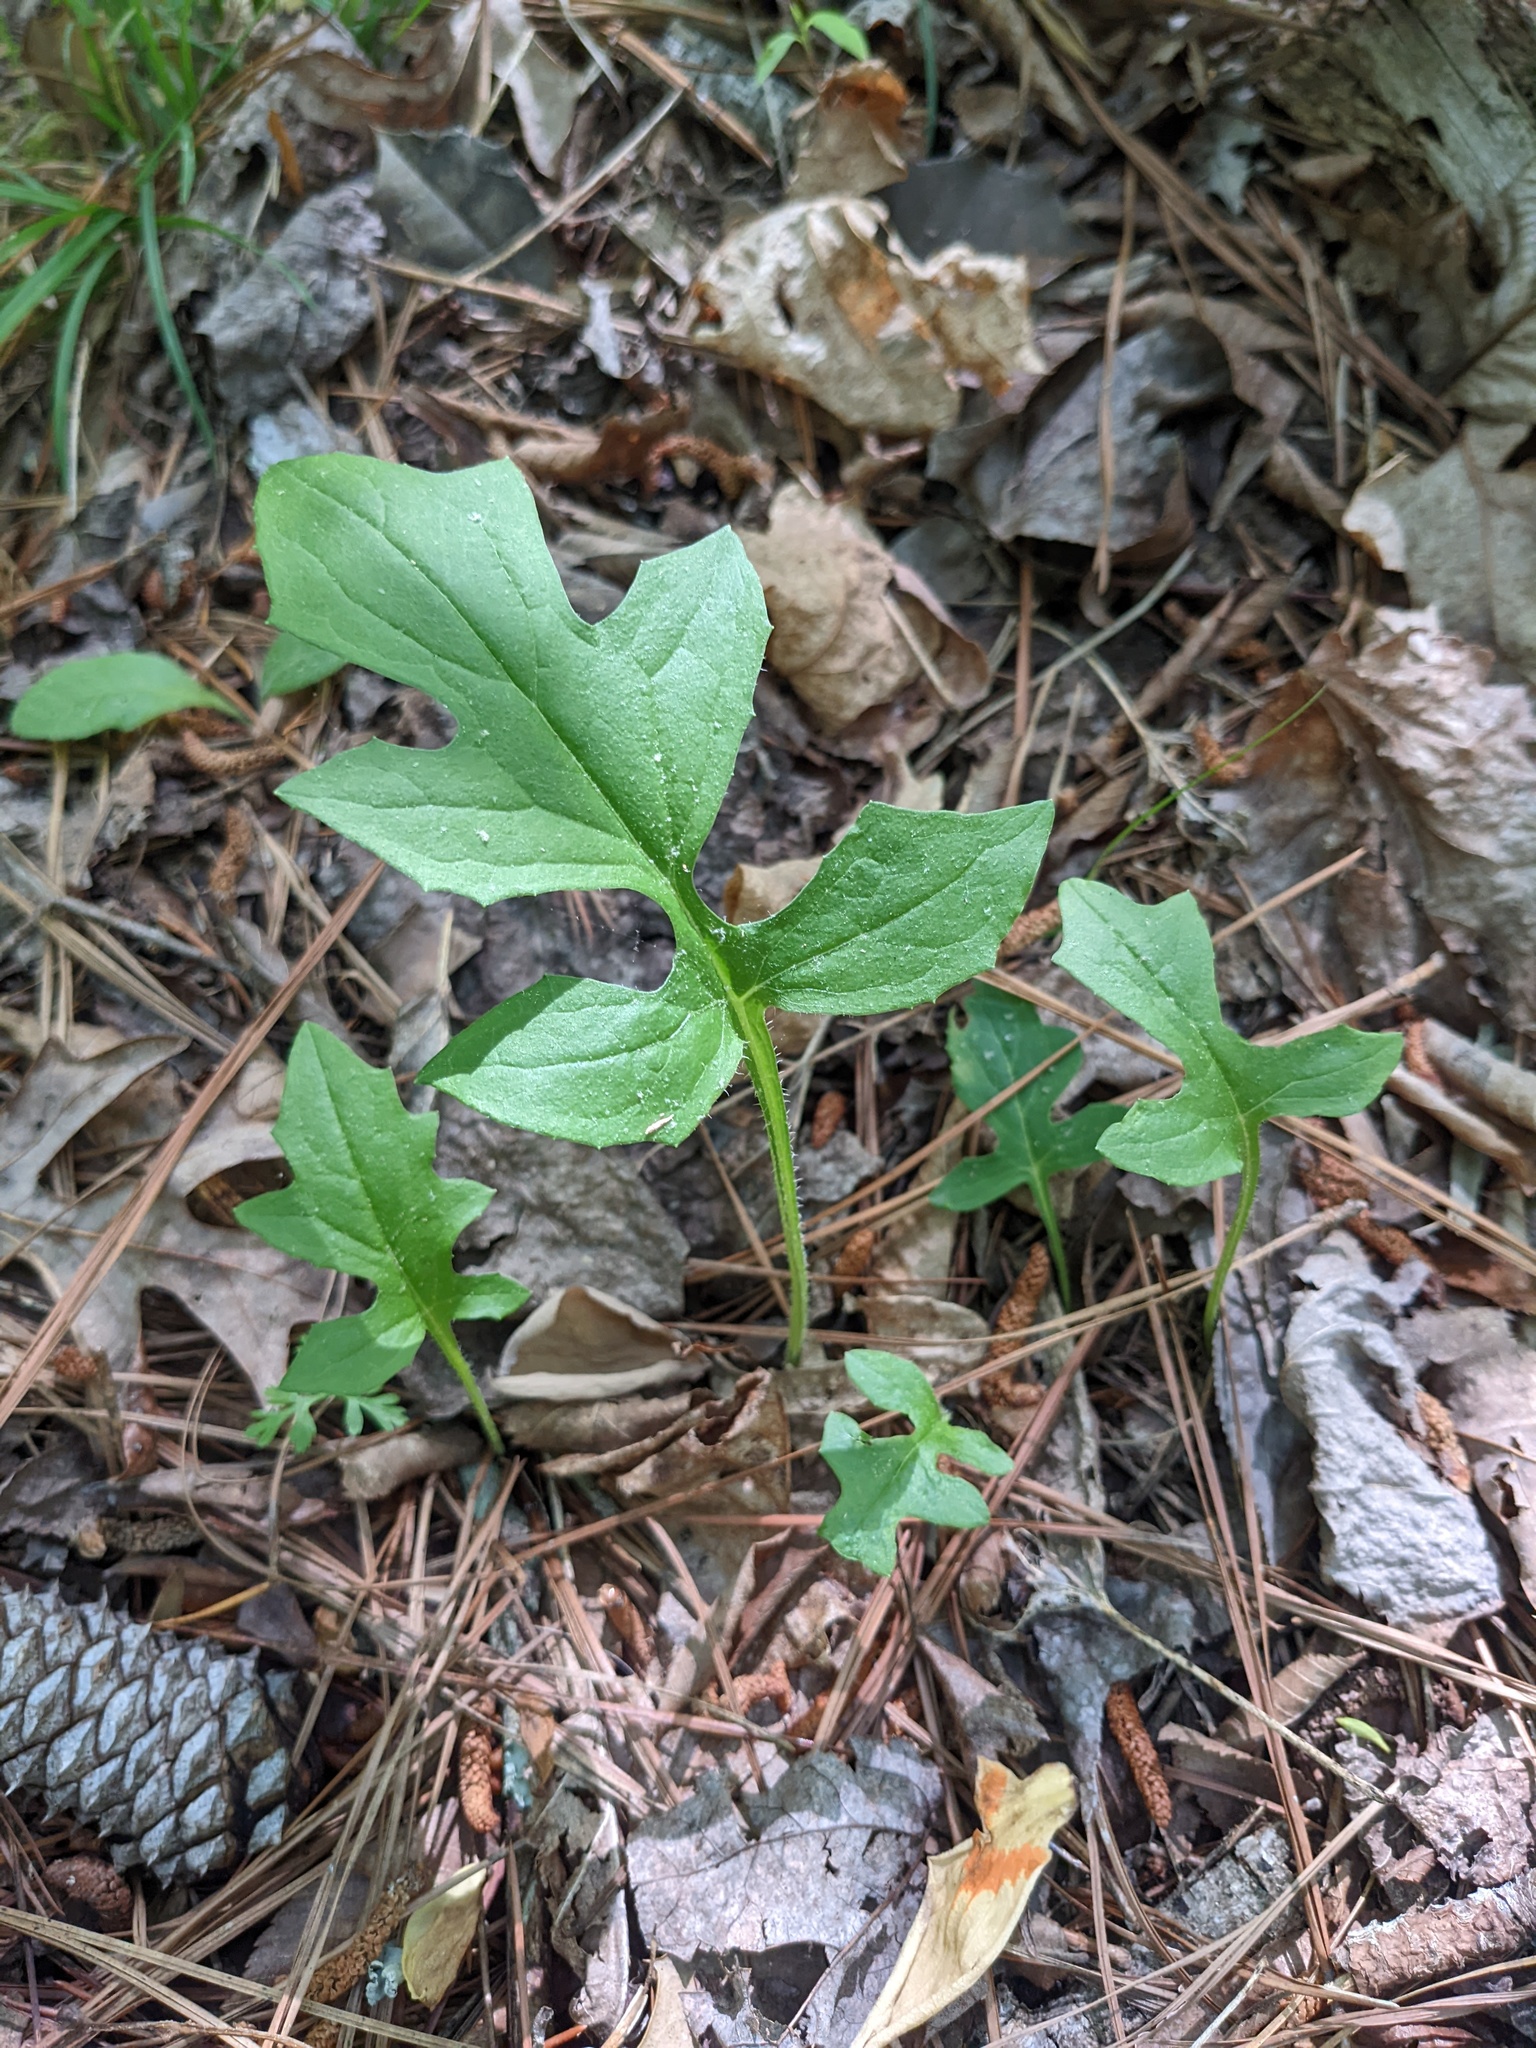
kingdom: Plantae
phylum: Tracheophyta
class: Magnoliopsida
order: Asterales
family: Asteraceae
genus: Nabalus
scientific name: Nabalus serpentarius
